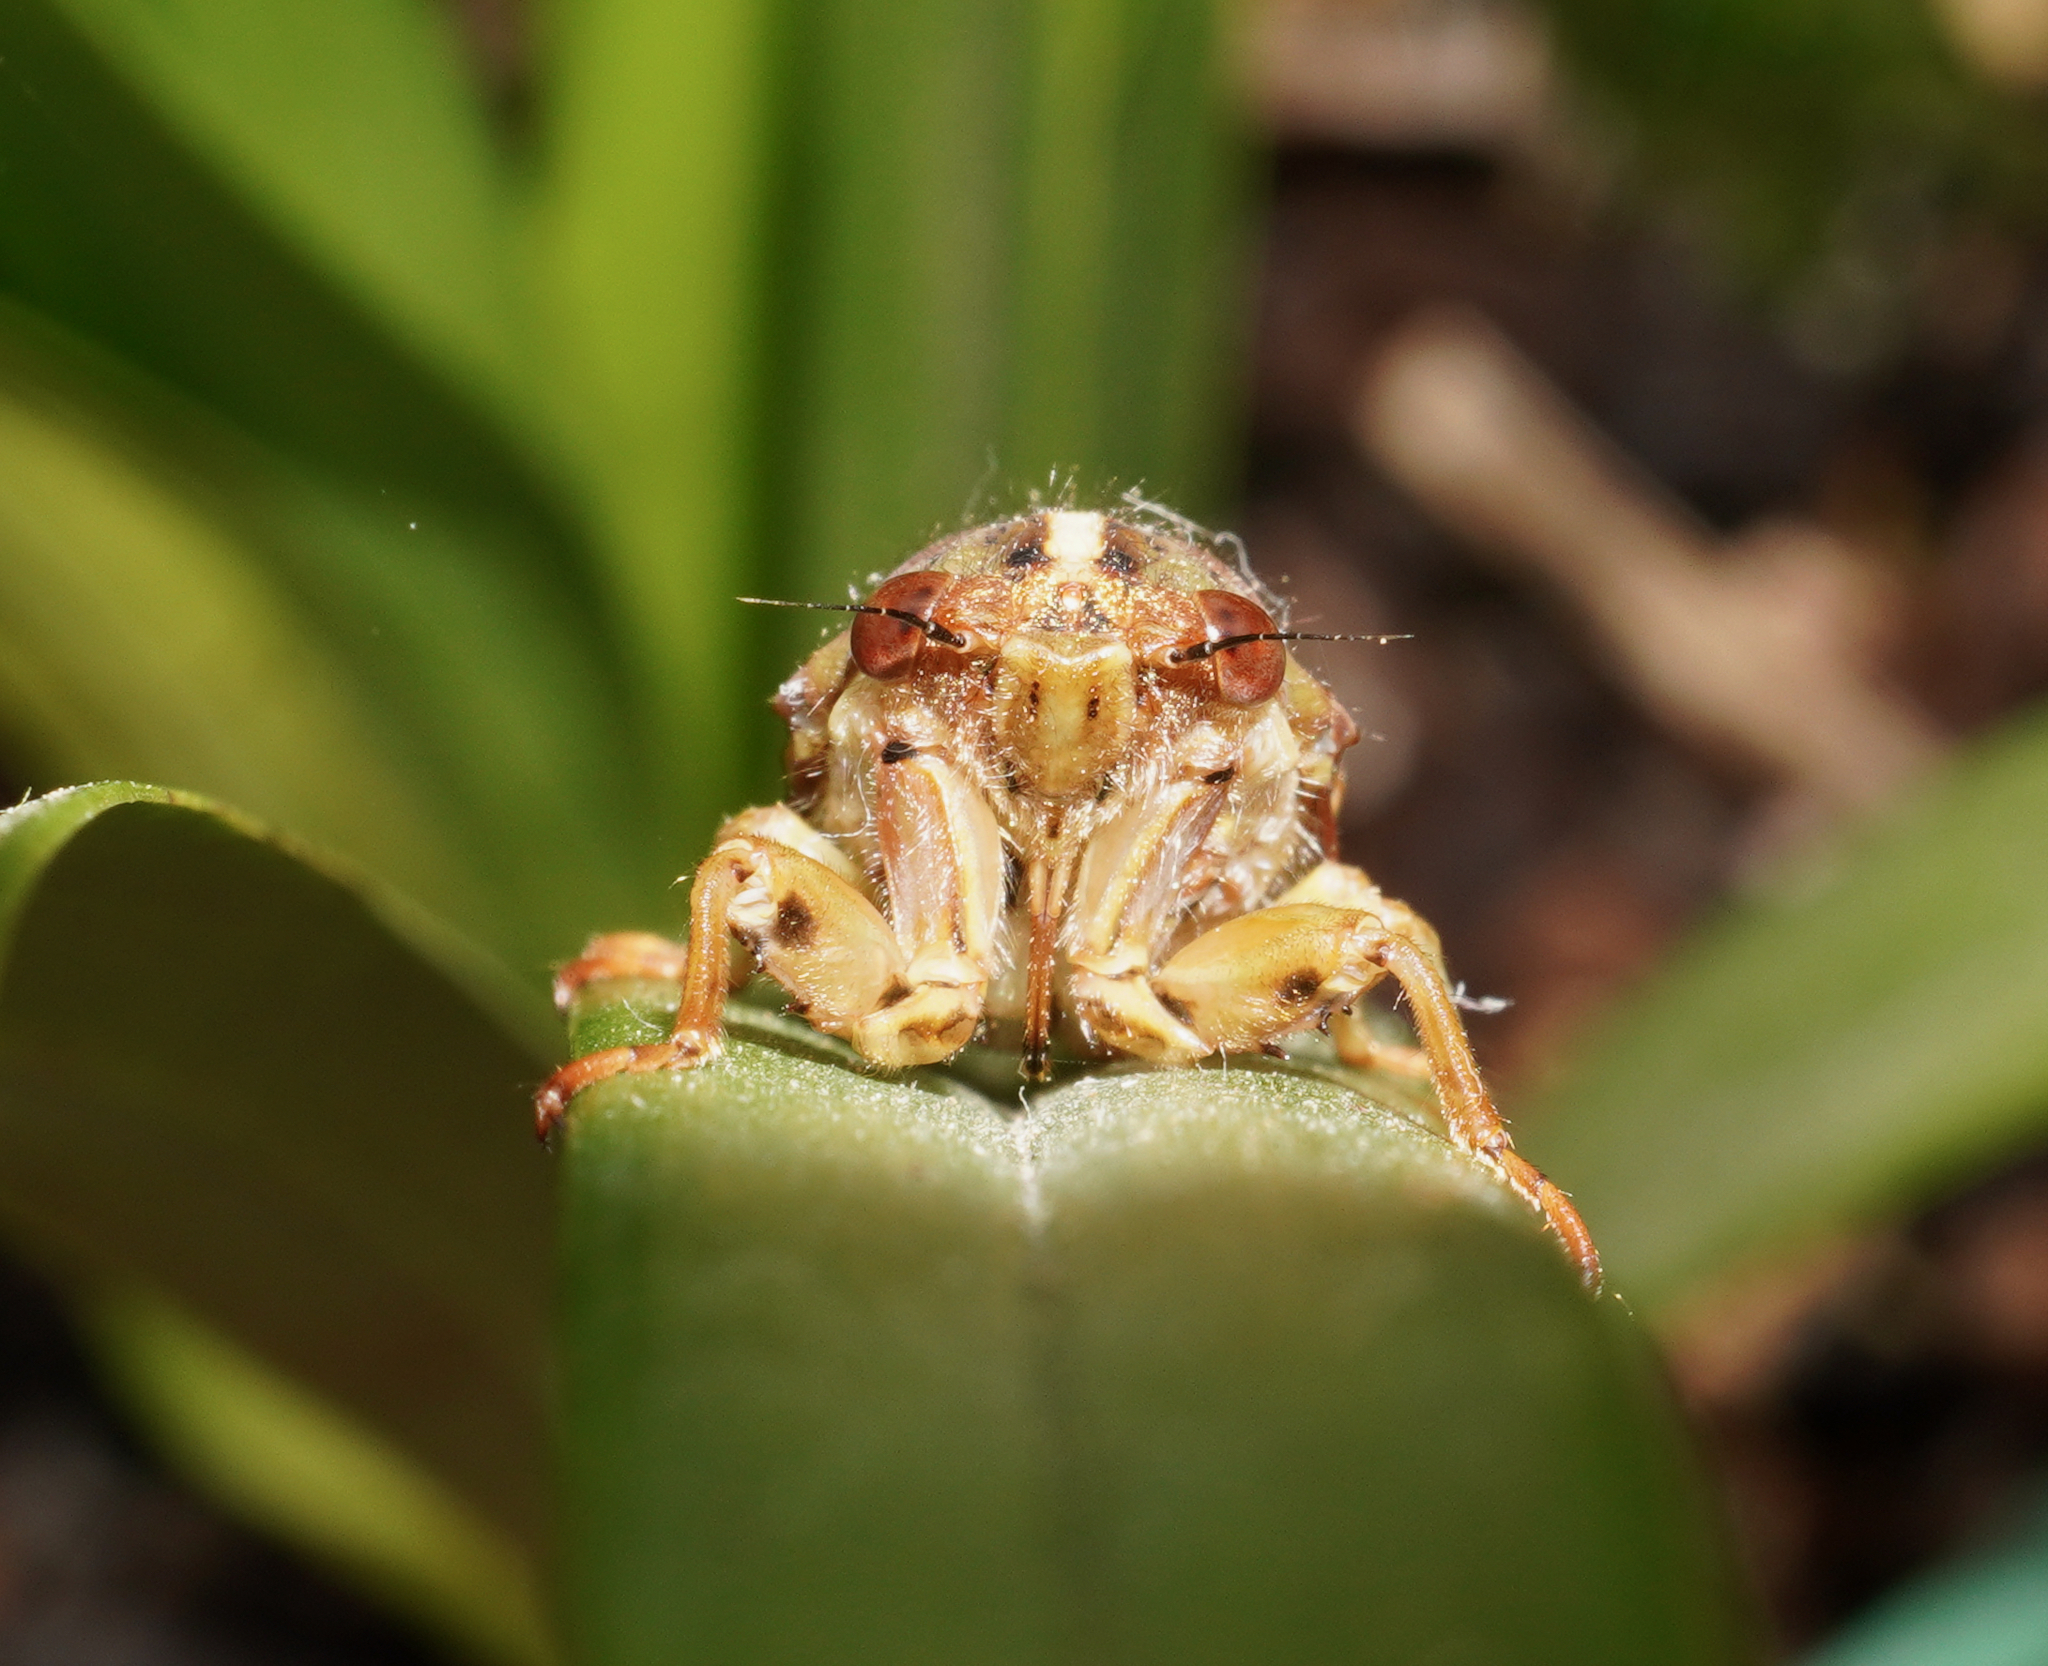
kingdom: Animalia
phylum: Arthropoda
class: Insecta
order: Hemiptera
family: Cicadidae
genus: Kikihia
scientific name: Kikihia muta
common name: Variable cicada
